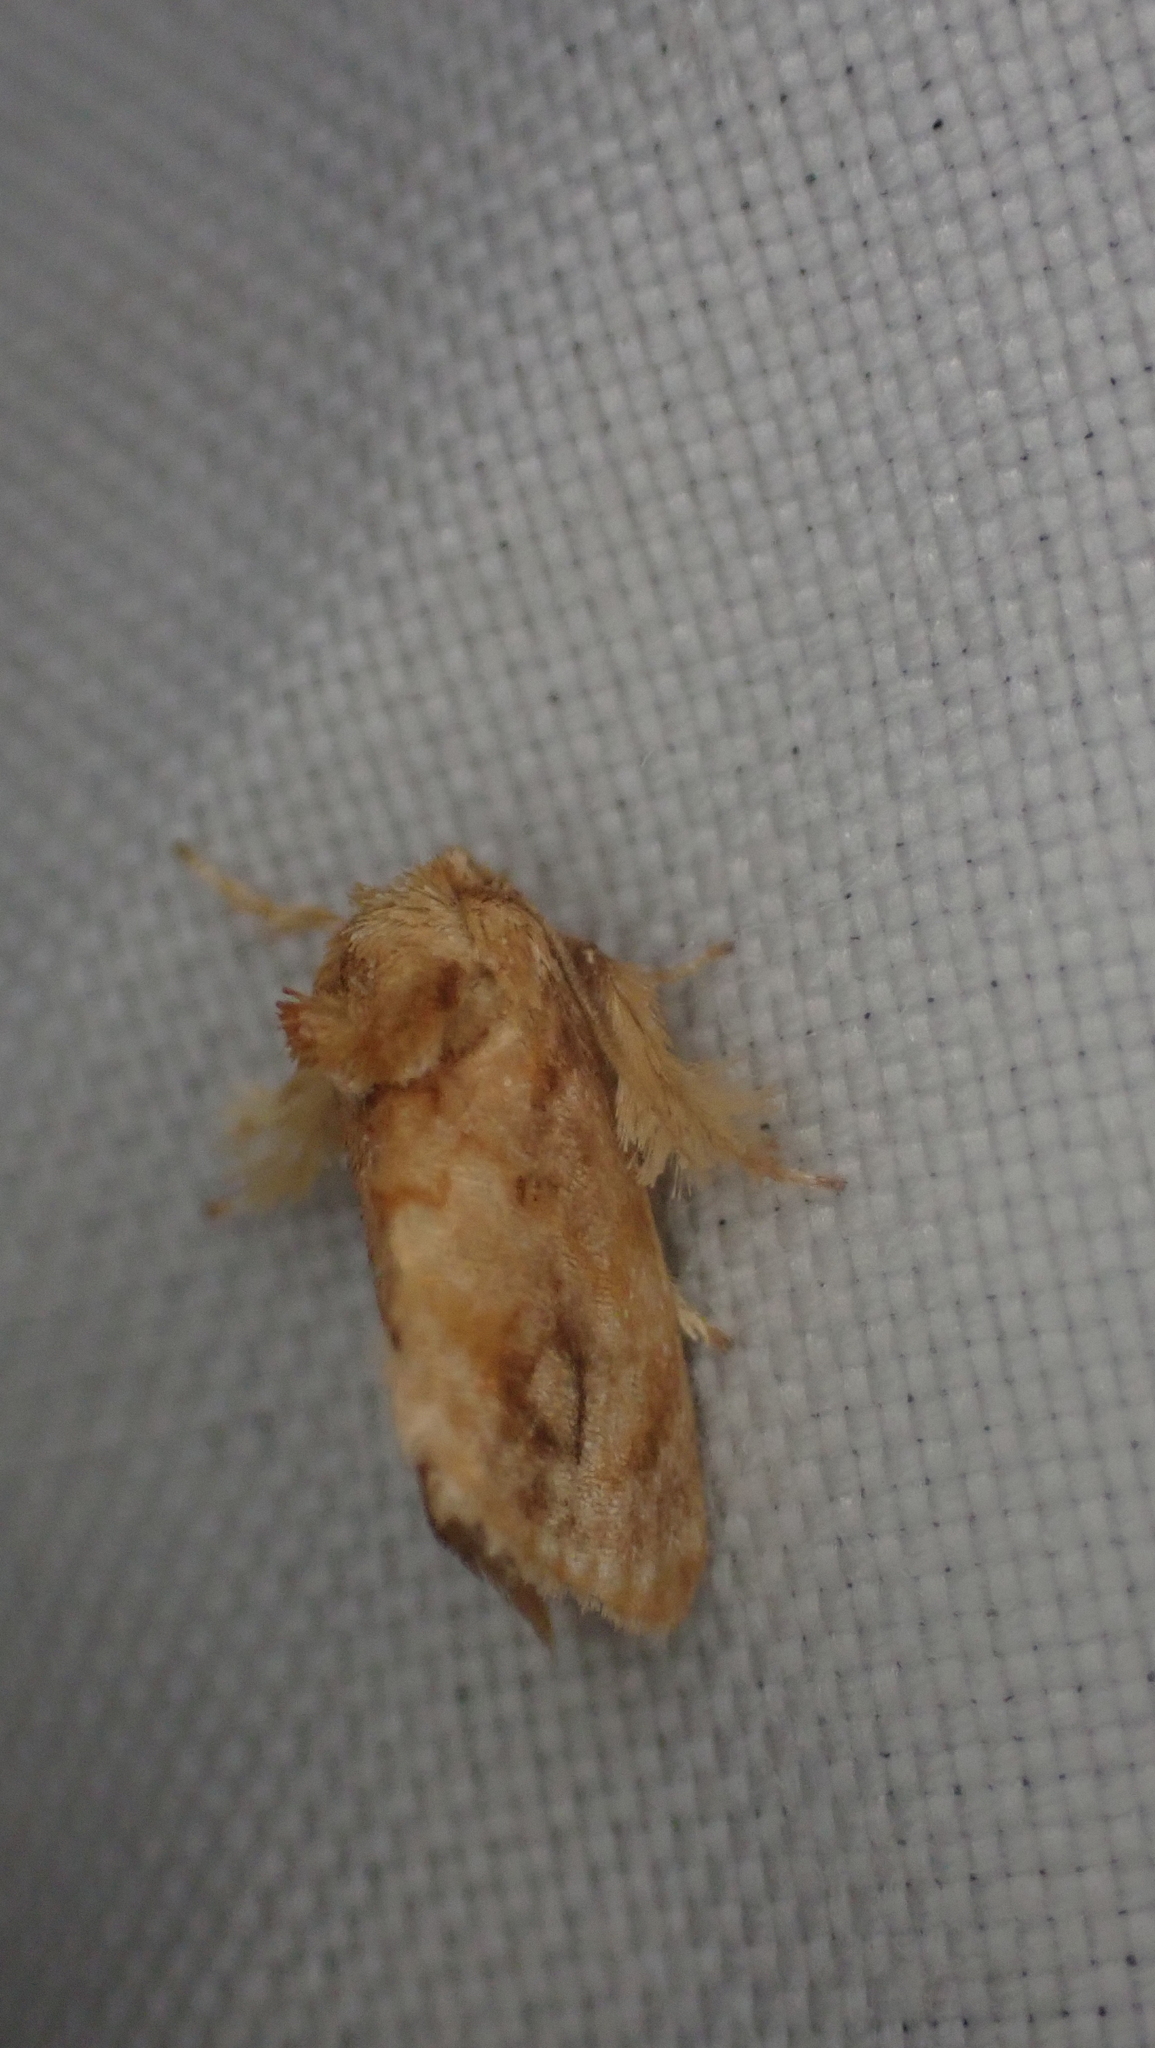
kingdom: Animalia
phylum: Arthropoda
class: Insecta
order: Lepidoptera
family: Limacodidae
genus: Isochaetes
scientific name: Isochaetes beutenmuelleri
